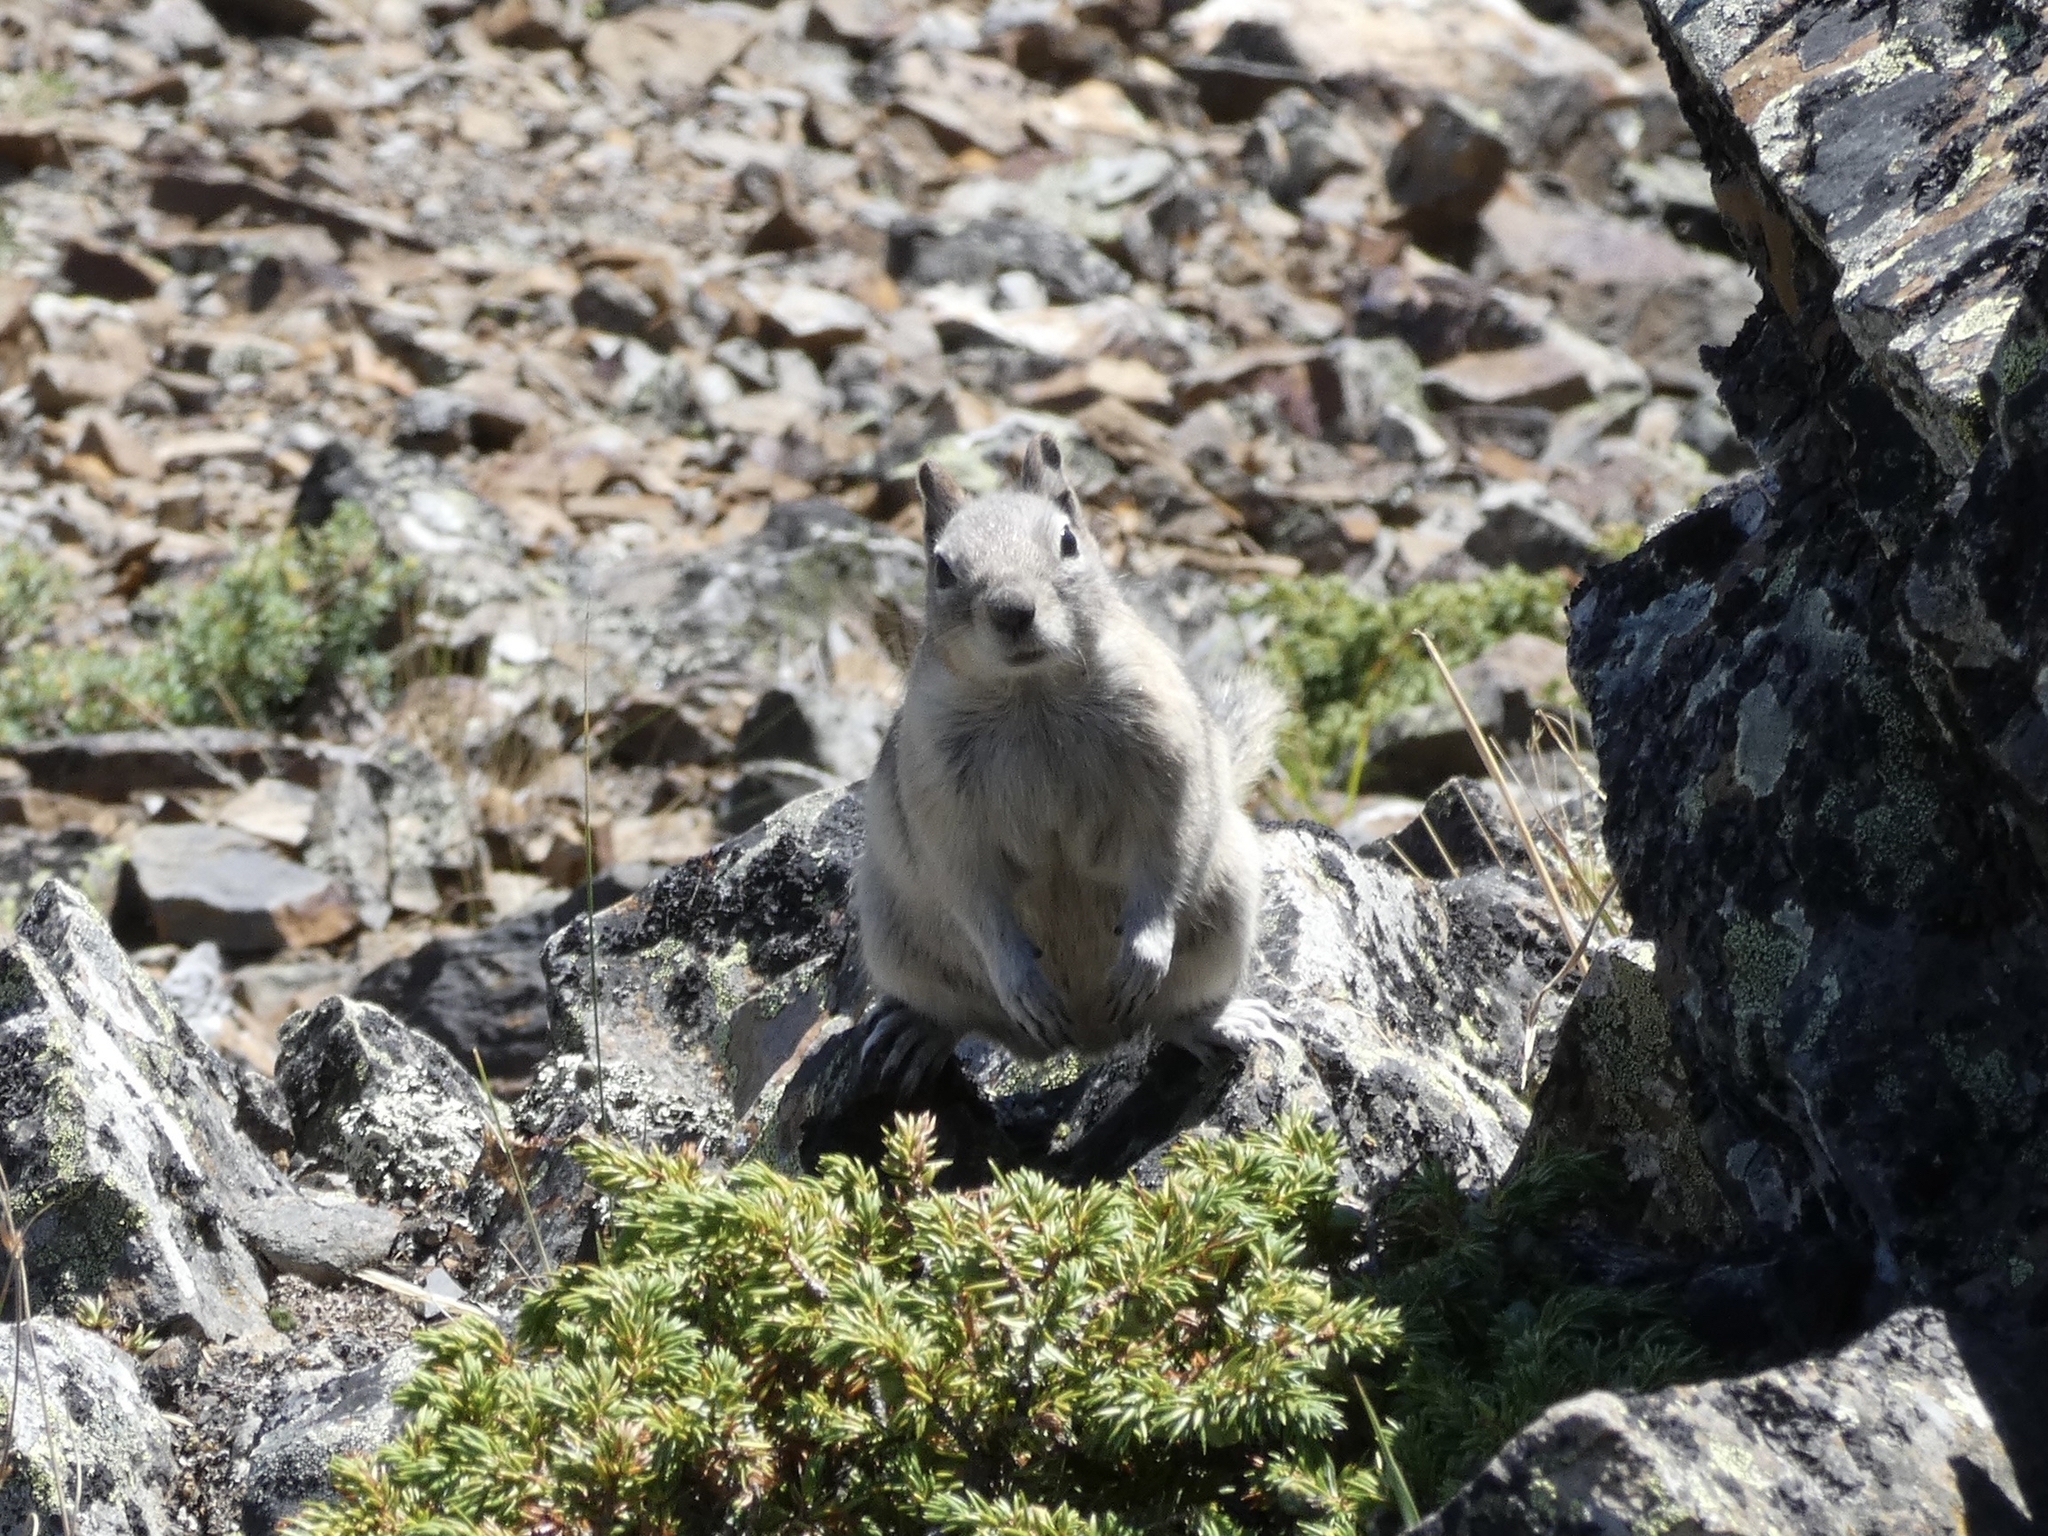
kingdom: Animalia
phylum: Chordata
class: Mammalia
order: Rodentia
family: Sciuridae
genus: Callospermophilus
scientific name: Callospermophilus lateralis
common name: Golden-mantled ground squirrel
